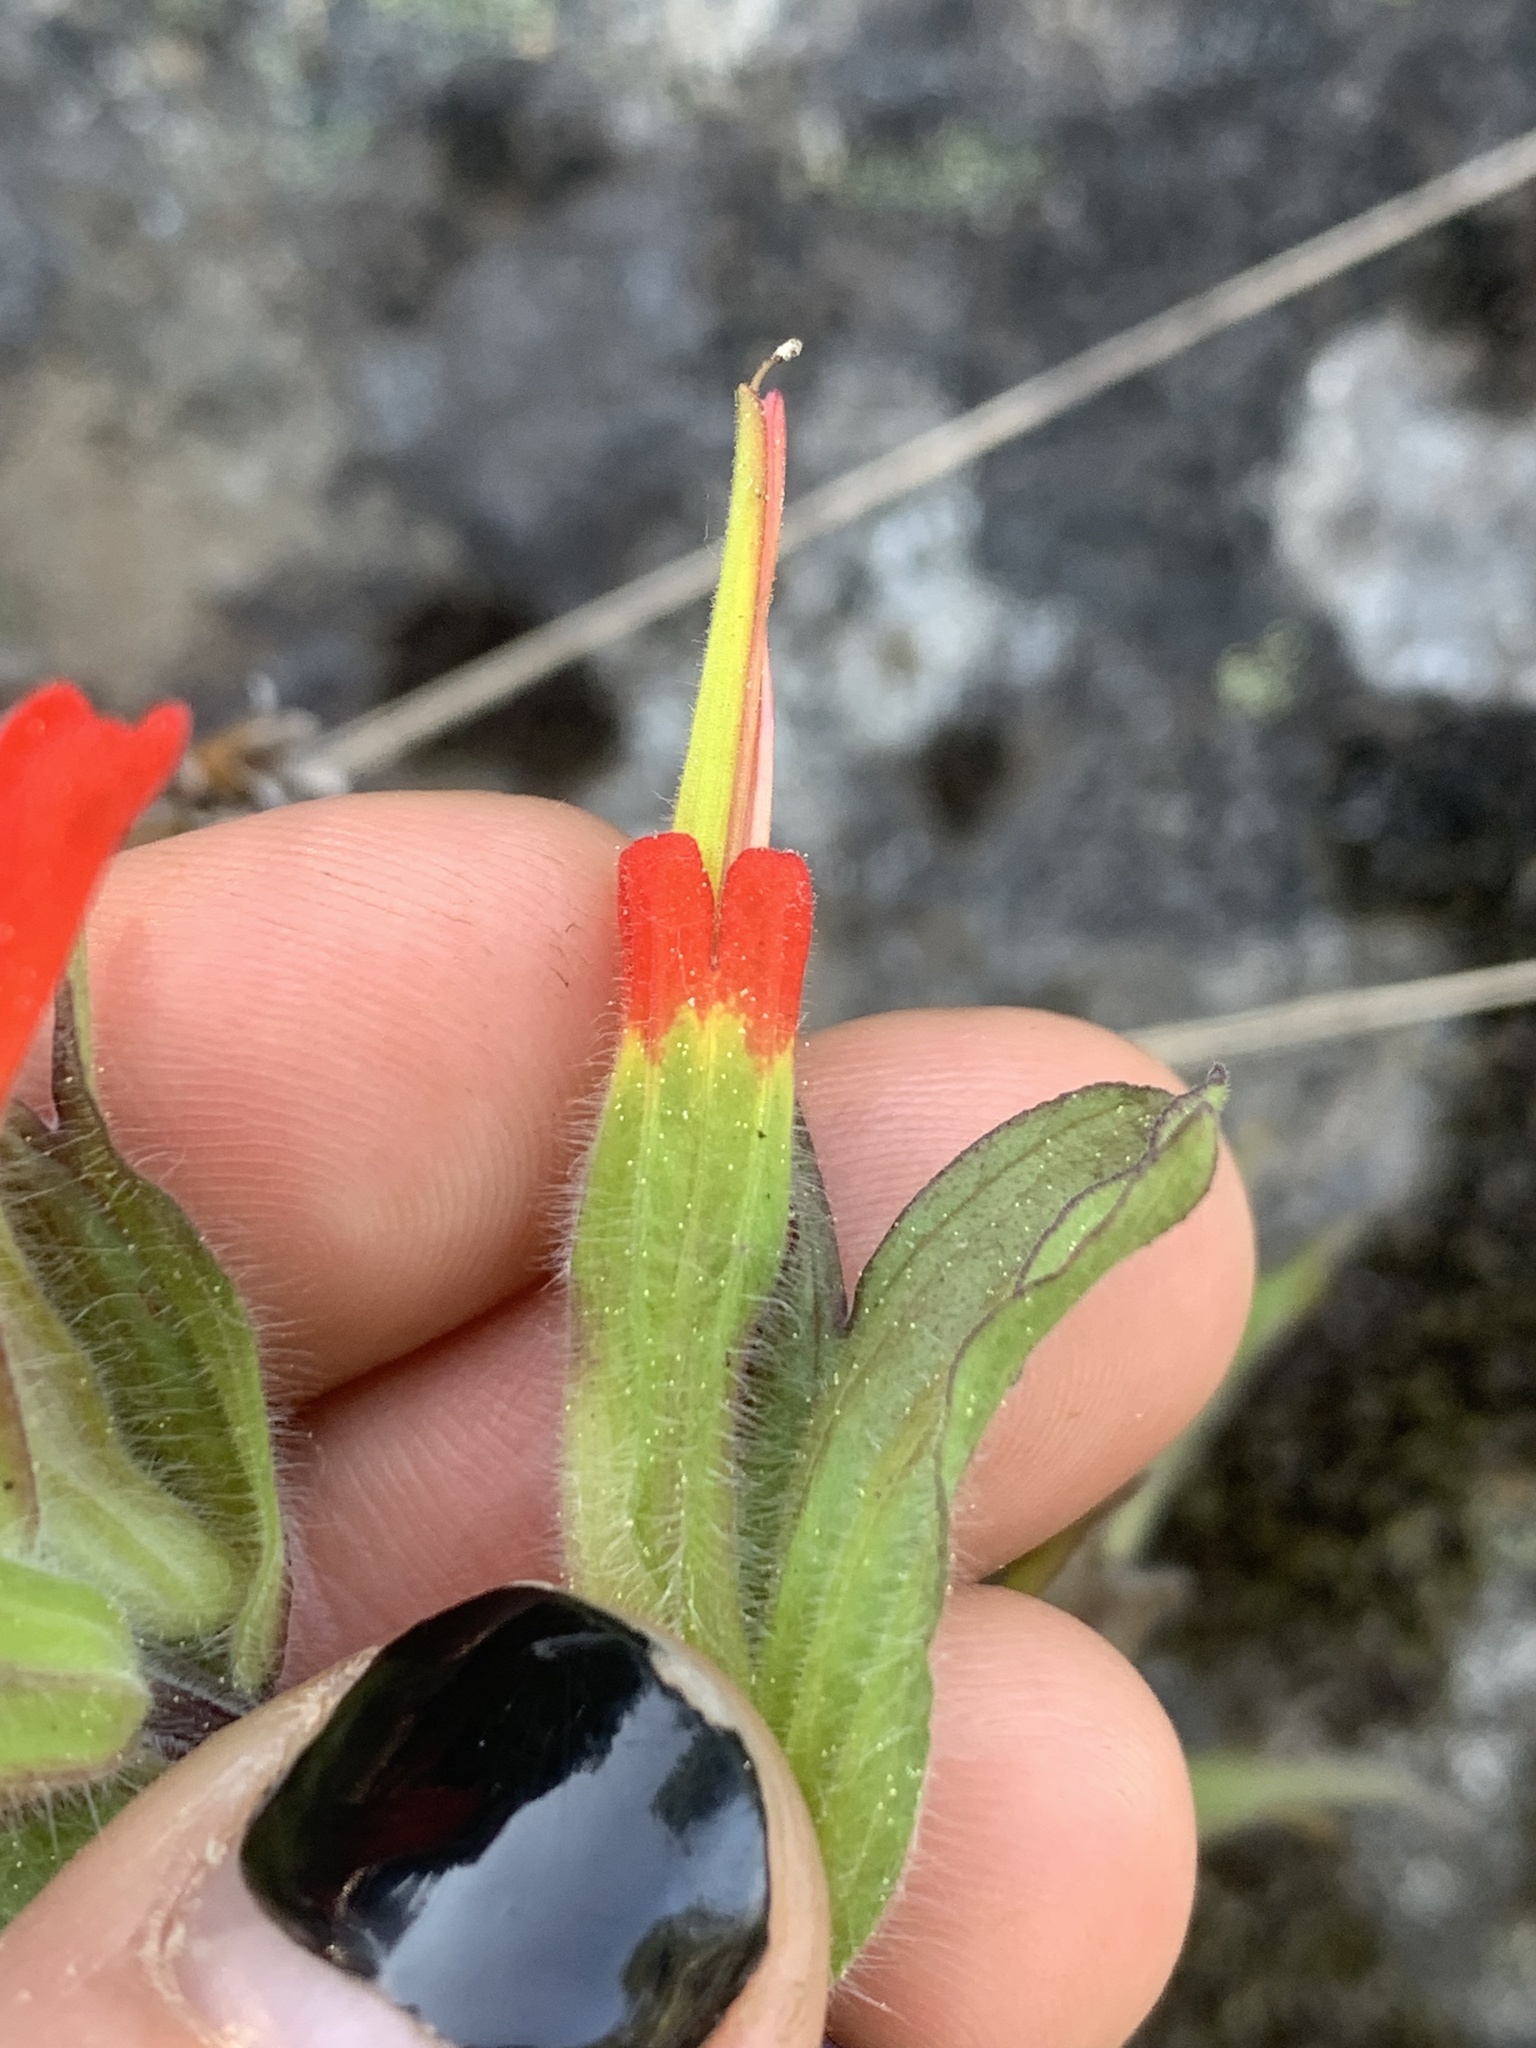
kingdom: Plantae
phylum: Tracheophyta
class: Magnoliopsida
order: Lamiales
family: Orobanchaceae
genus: Castilleja
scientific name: Castilleja hispida
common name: Bristly paintbrush
